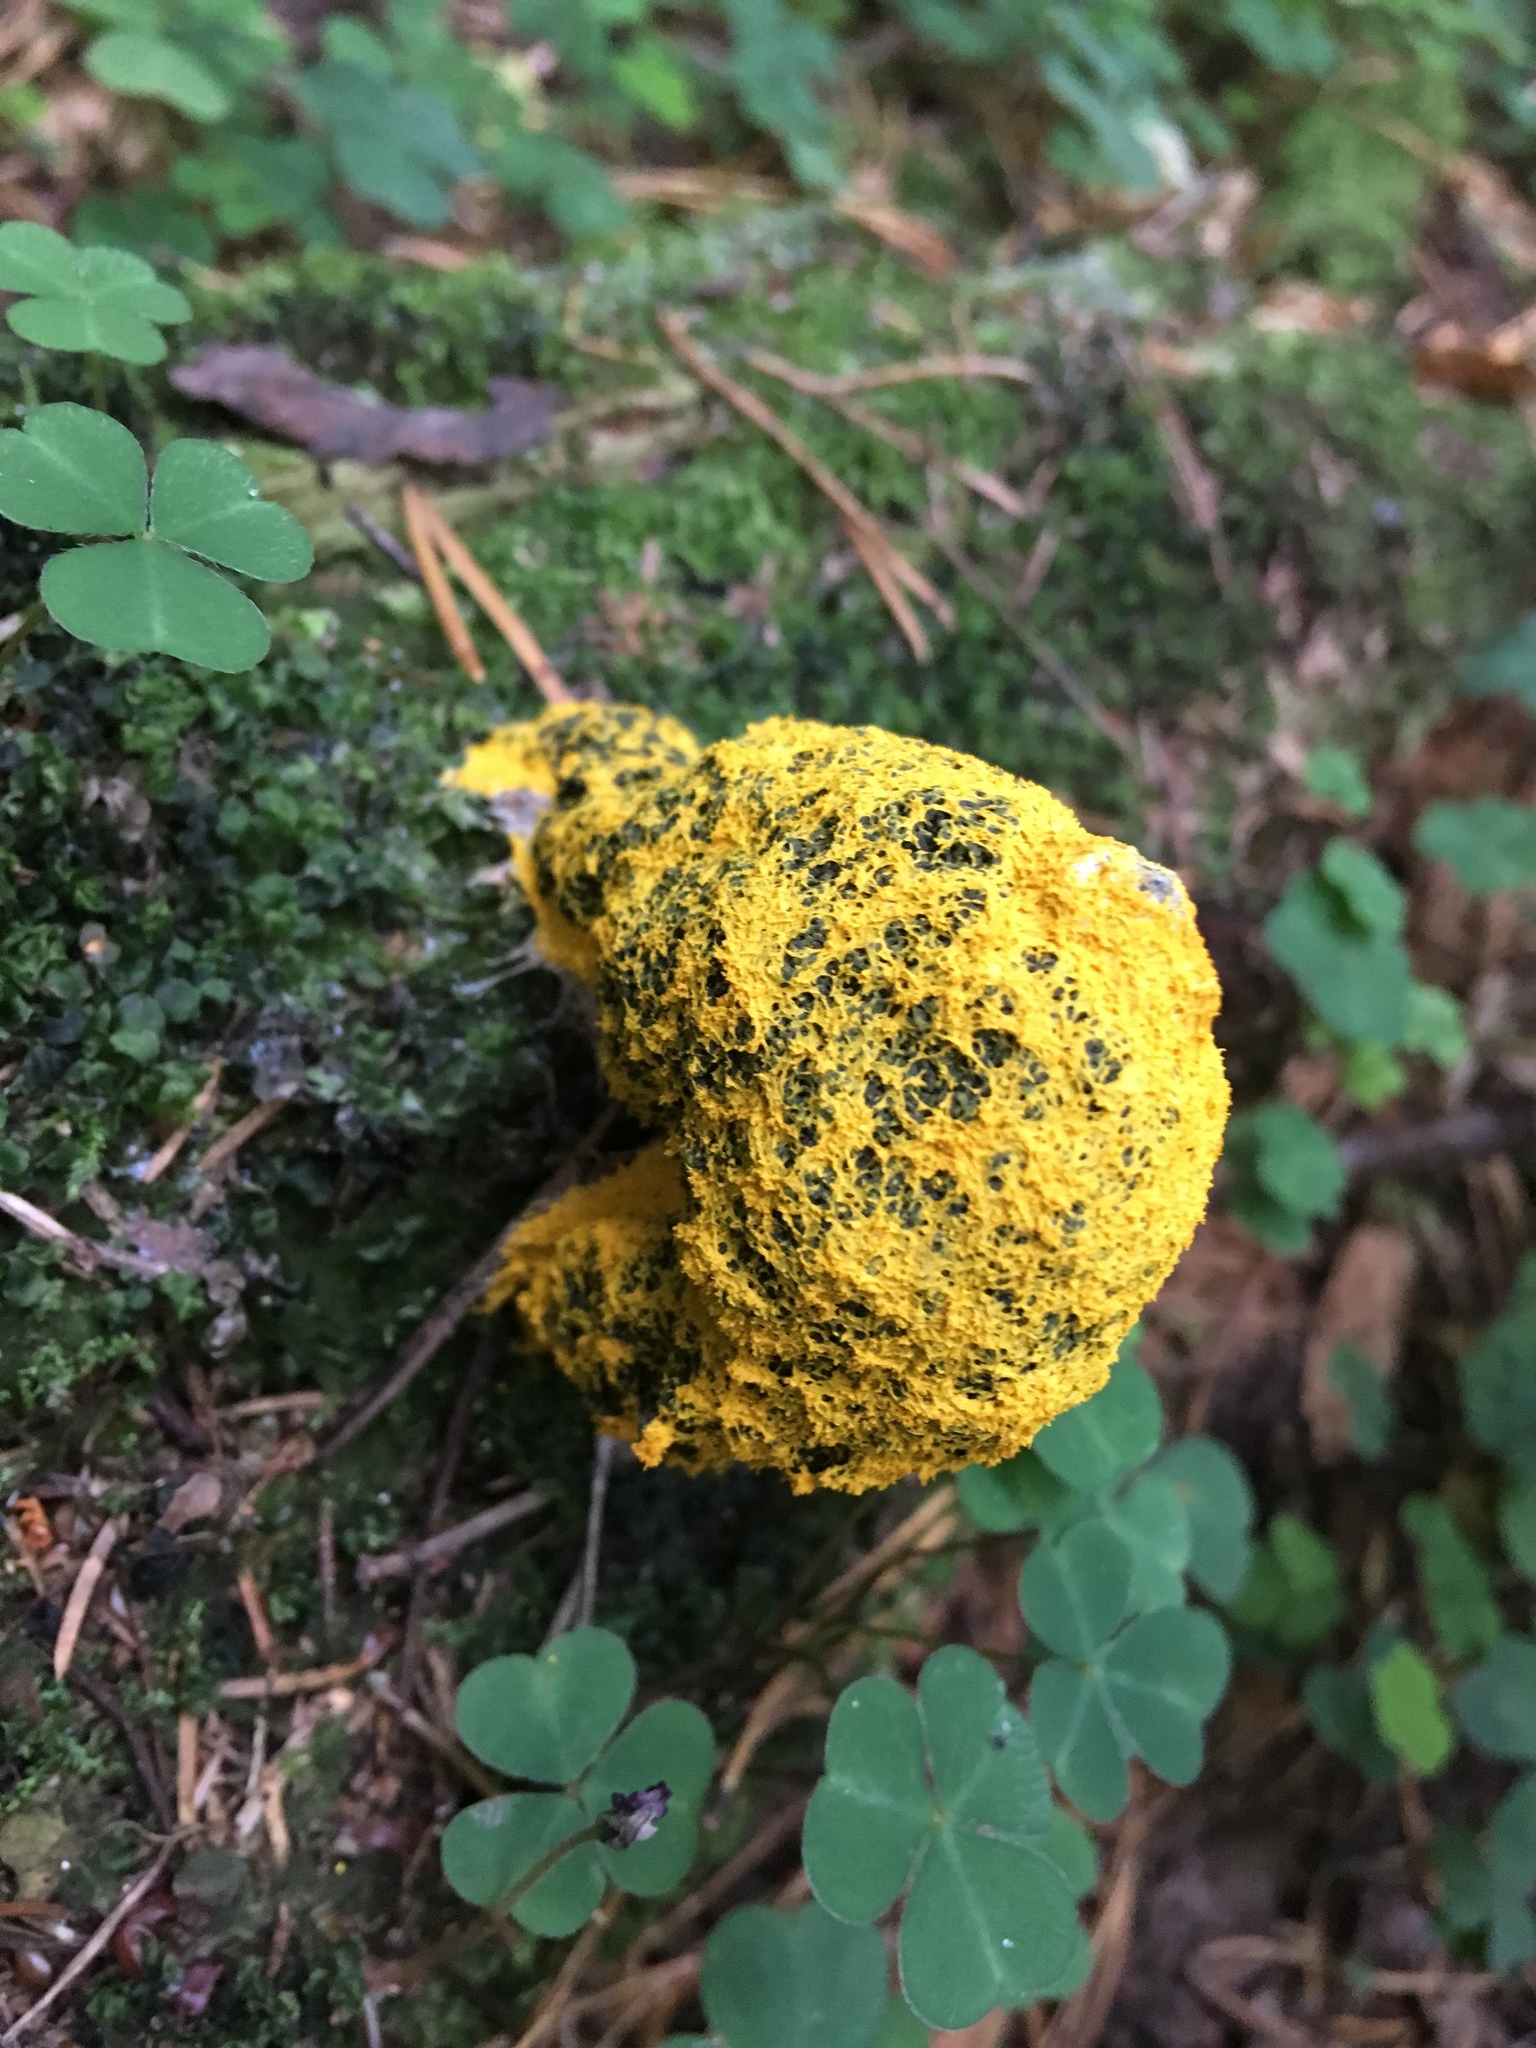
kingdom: Protozoa
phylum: Mycetozoa
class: Myxomycetes
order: Physarales
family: Physaraceae
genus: Fuligo
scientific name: Fuligo septica
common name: Dog vomit slime mold
